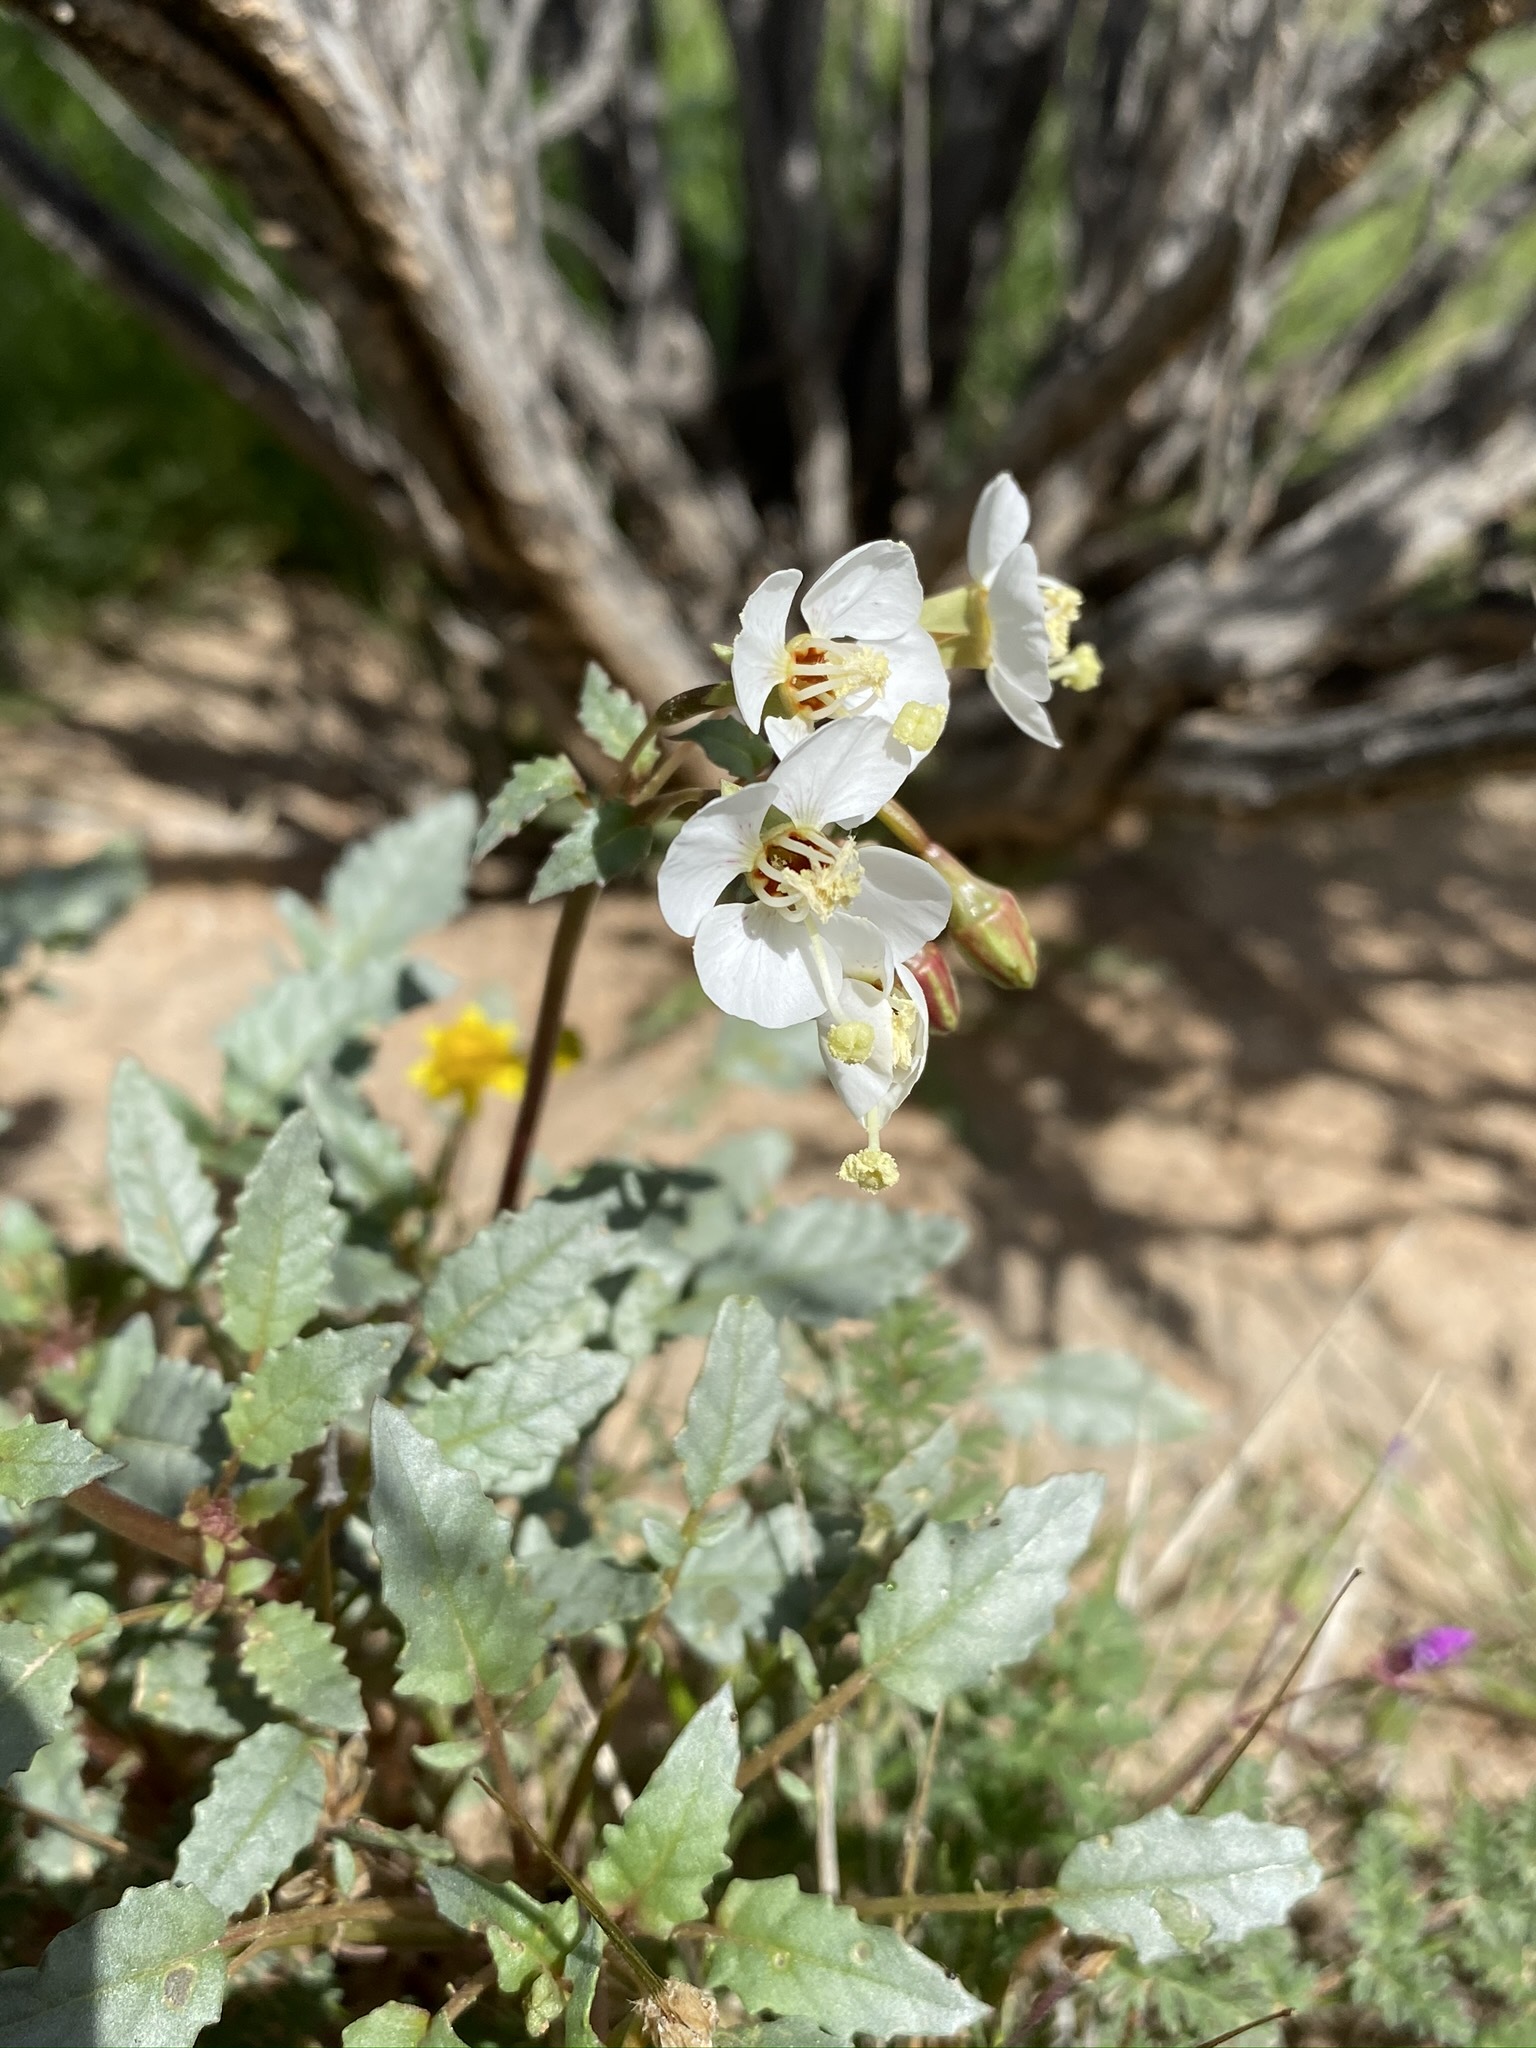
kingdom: Plantae
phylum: Tracheophyta
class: Magnoliopsida
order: Myrtales
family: Onagraceae
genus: Chylismia
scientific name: Chylismia claviformis
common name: Browneyes
